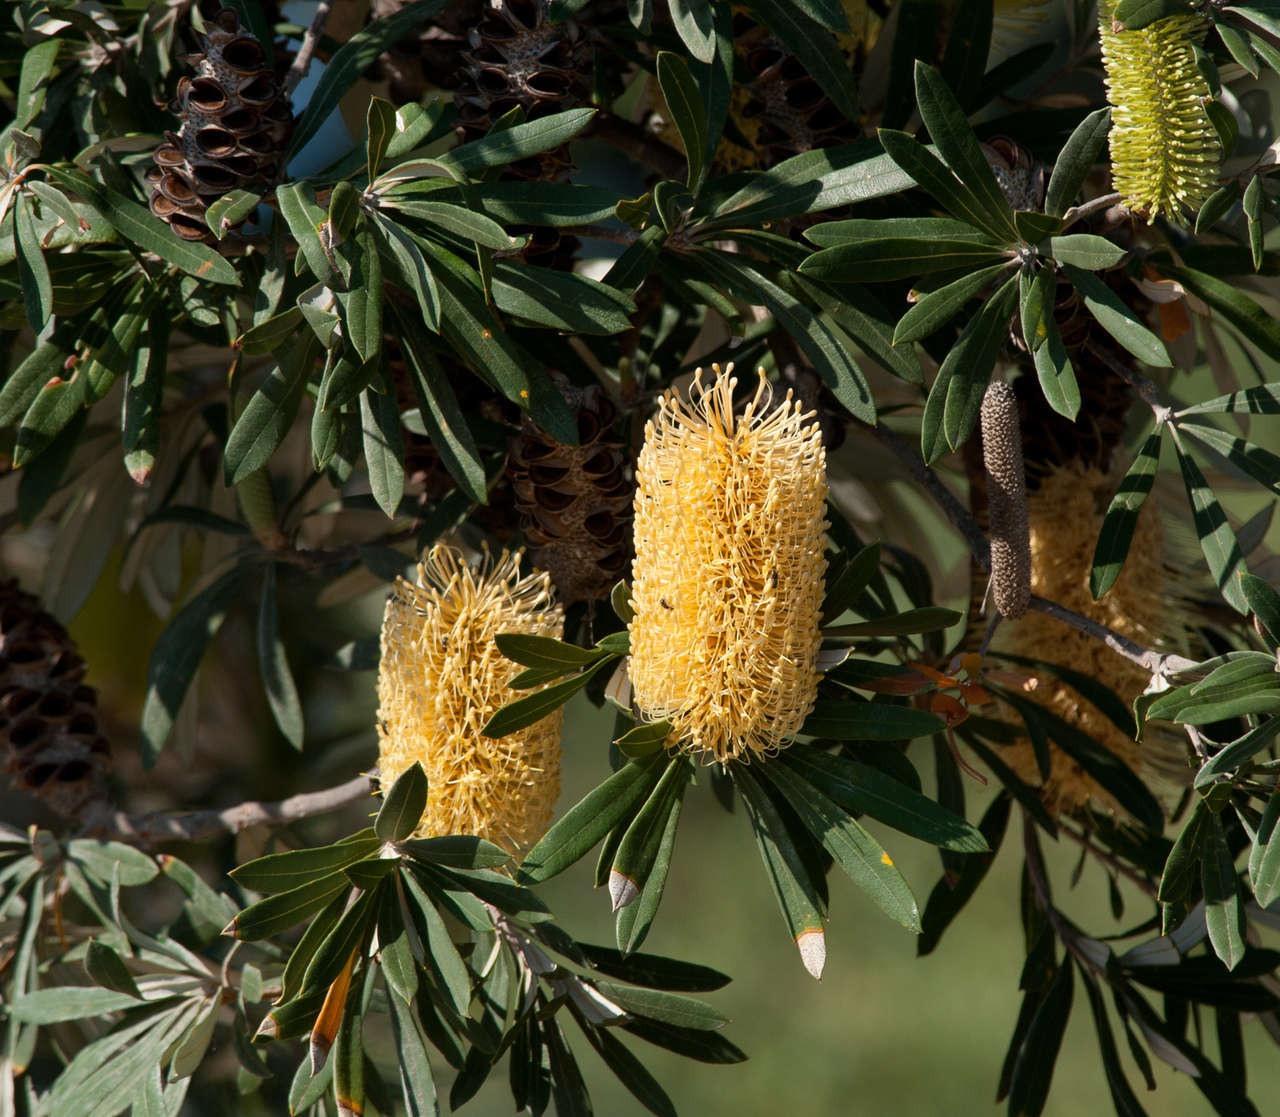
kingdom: Plantae
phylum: Tracheophyta
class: Magnoliopsida
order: Proteales
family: Proteaceae
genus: Banksia
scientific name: Banksia integrifolia
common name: White-honeysuckle
